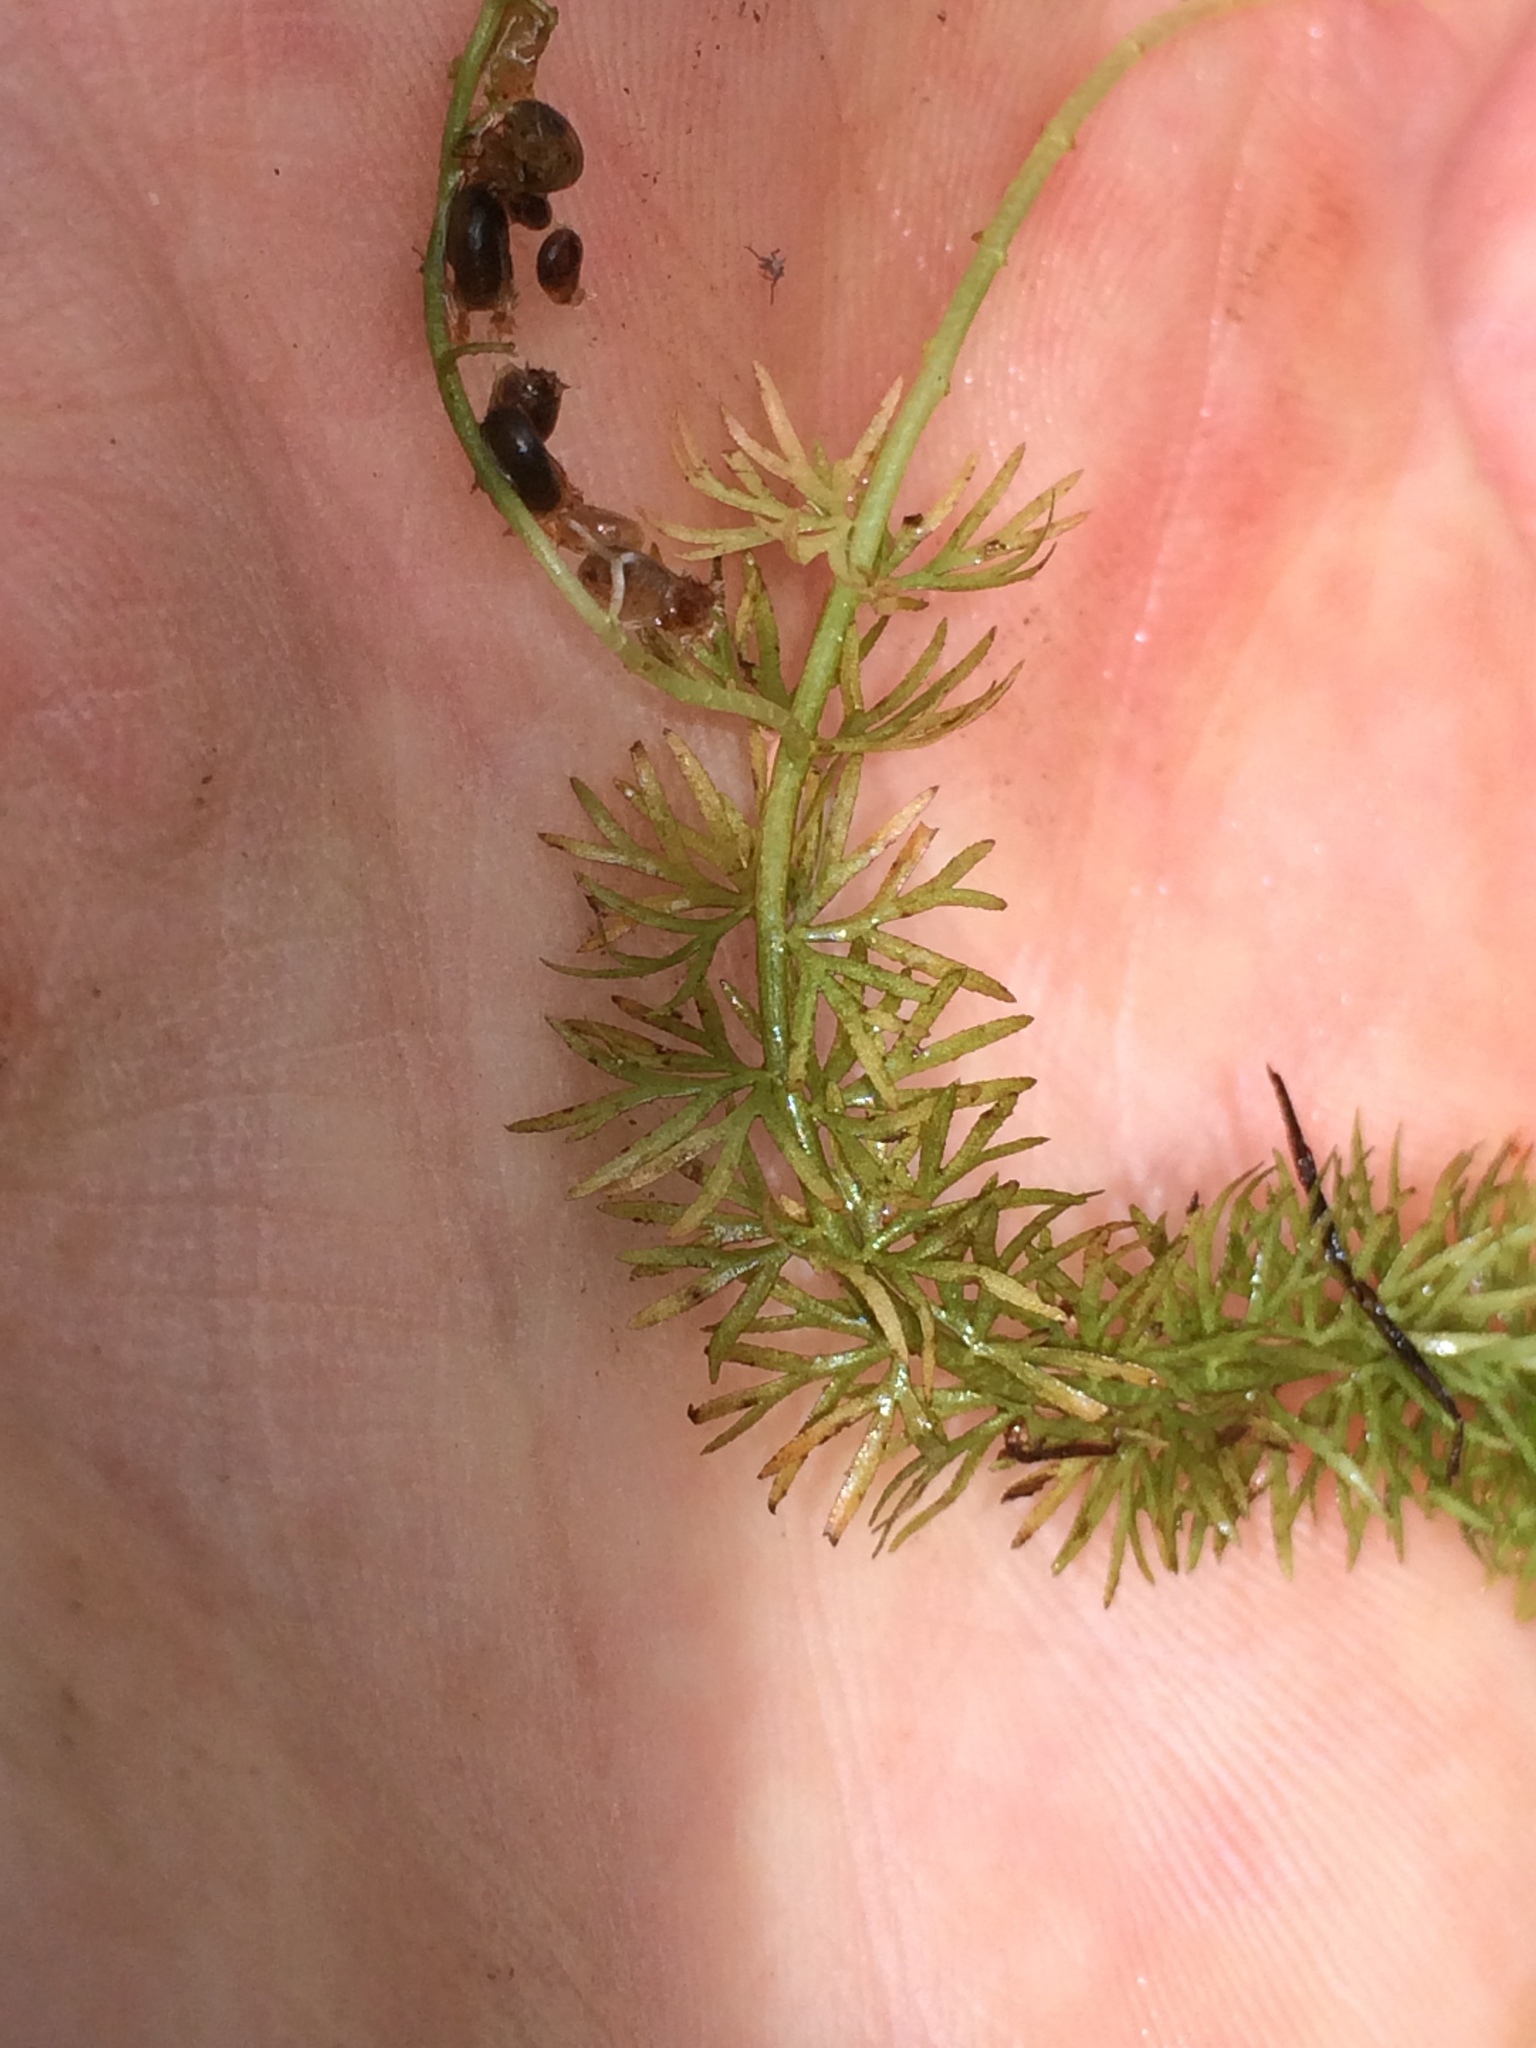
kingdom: Plantae
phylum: Tracheophyta
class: Magnoliopsida
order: Lamiales
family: Lentibulariaceae
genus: Utricularia
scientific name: Utricularia intermedia
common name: Intermediate bladderwort
